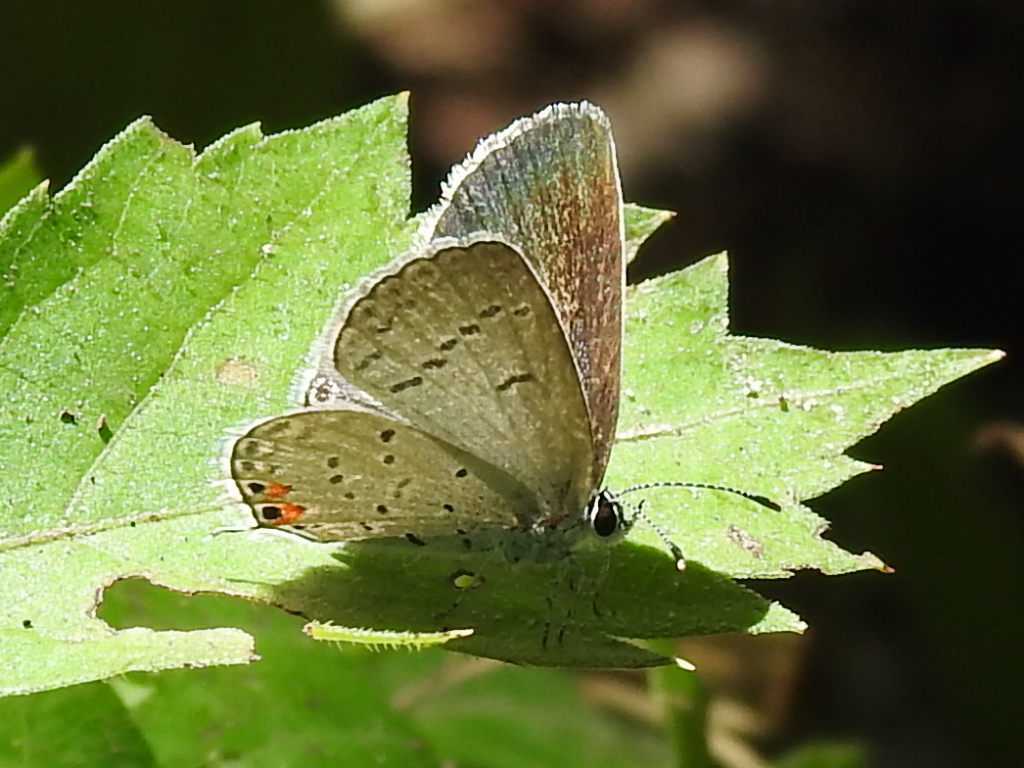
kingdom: Animalia
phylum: Arthropoda
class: Insecta
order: Lepidoptera
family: Lycaenidae
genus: Elkalyce
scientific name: Elkalyce comyntas
